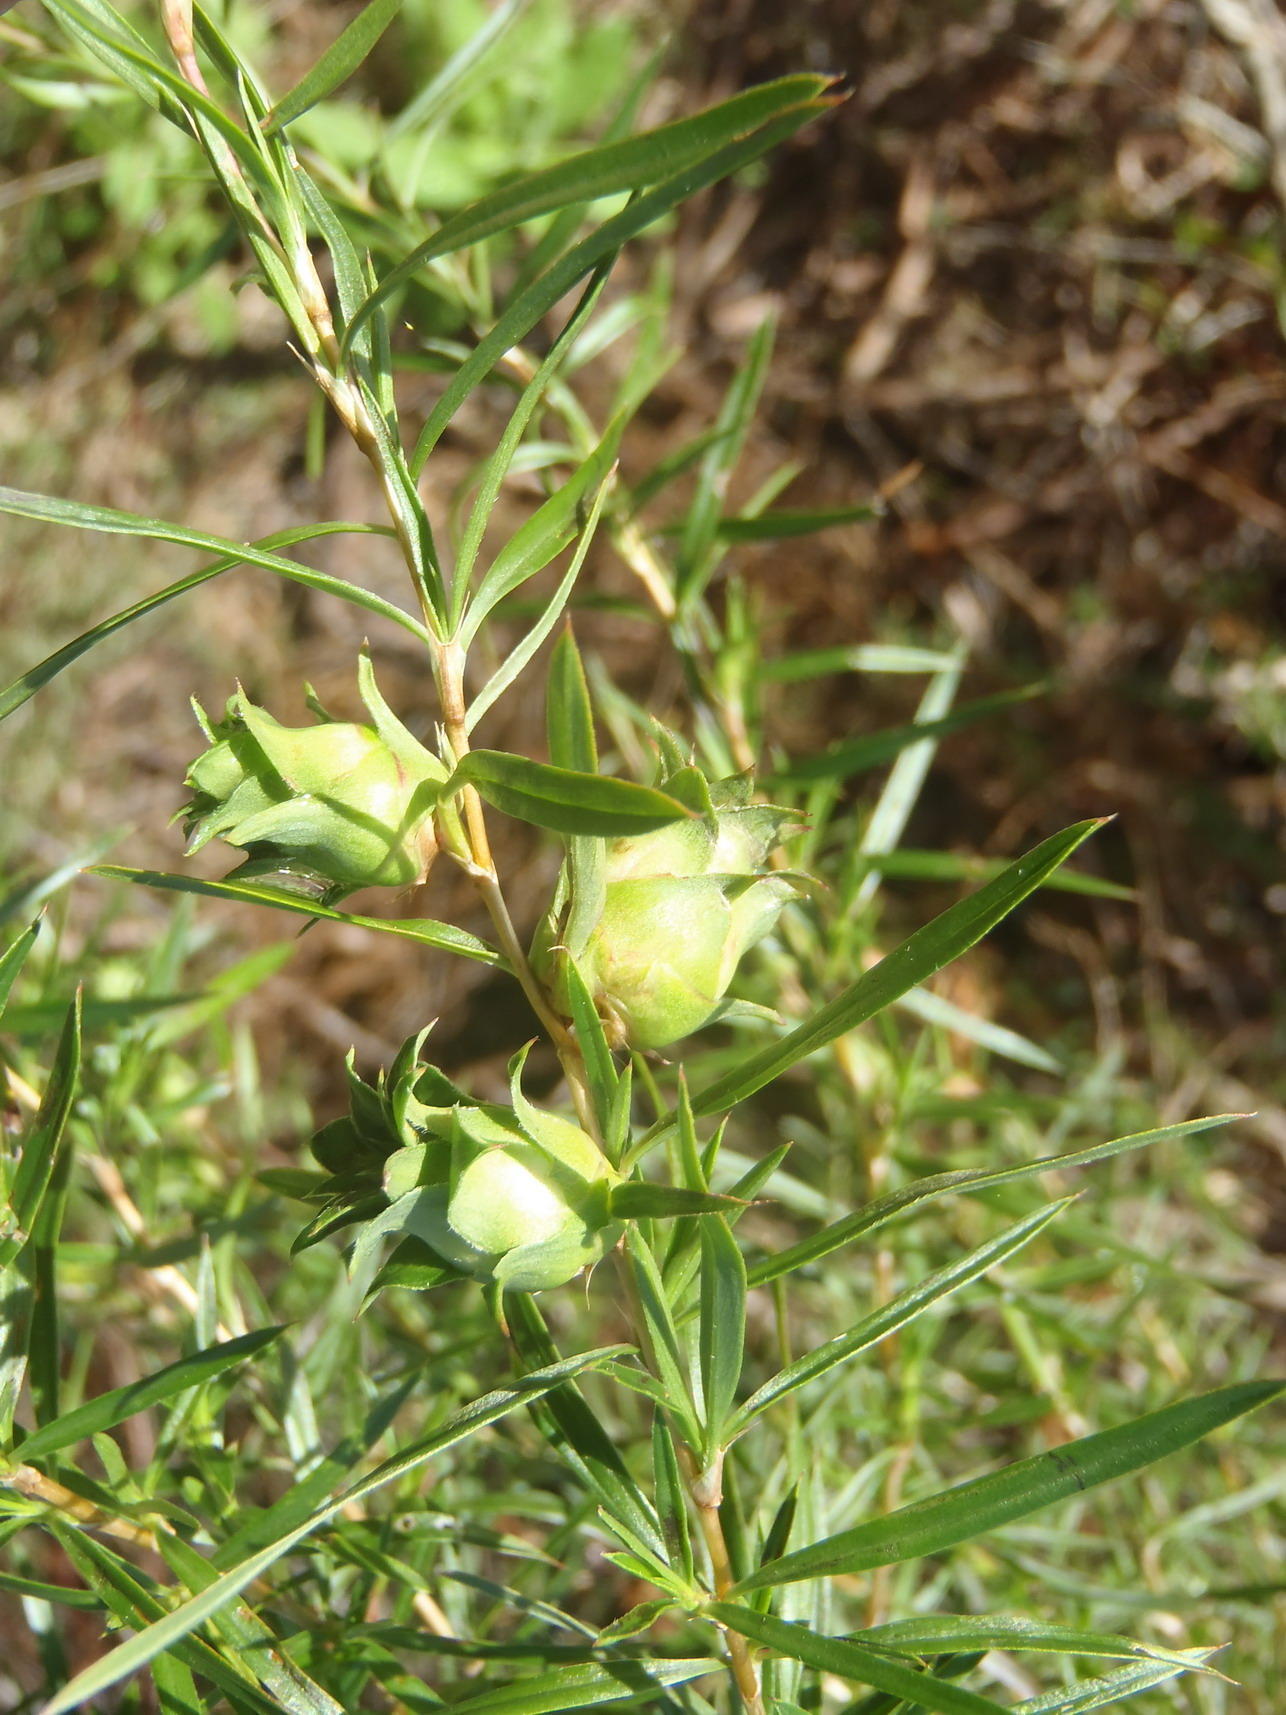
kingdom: Plantae
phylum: Tracheophyta
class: Magnoliopsida
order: Rosales
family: Rosaceae
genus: Cliffortia
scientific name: Cliffortia strobilifera
